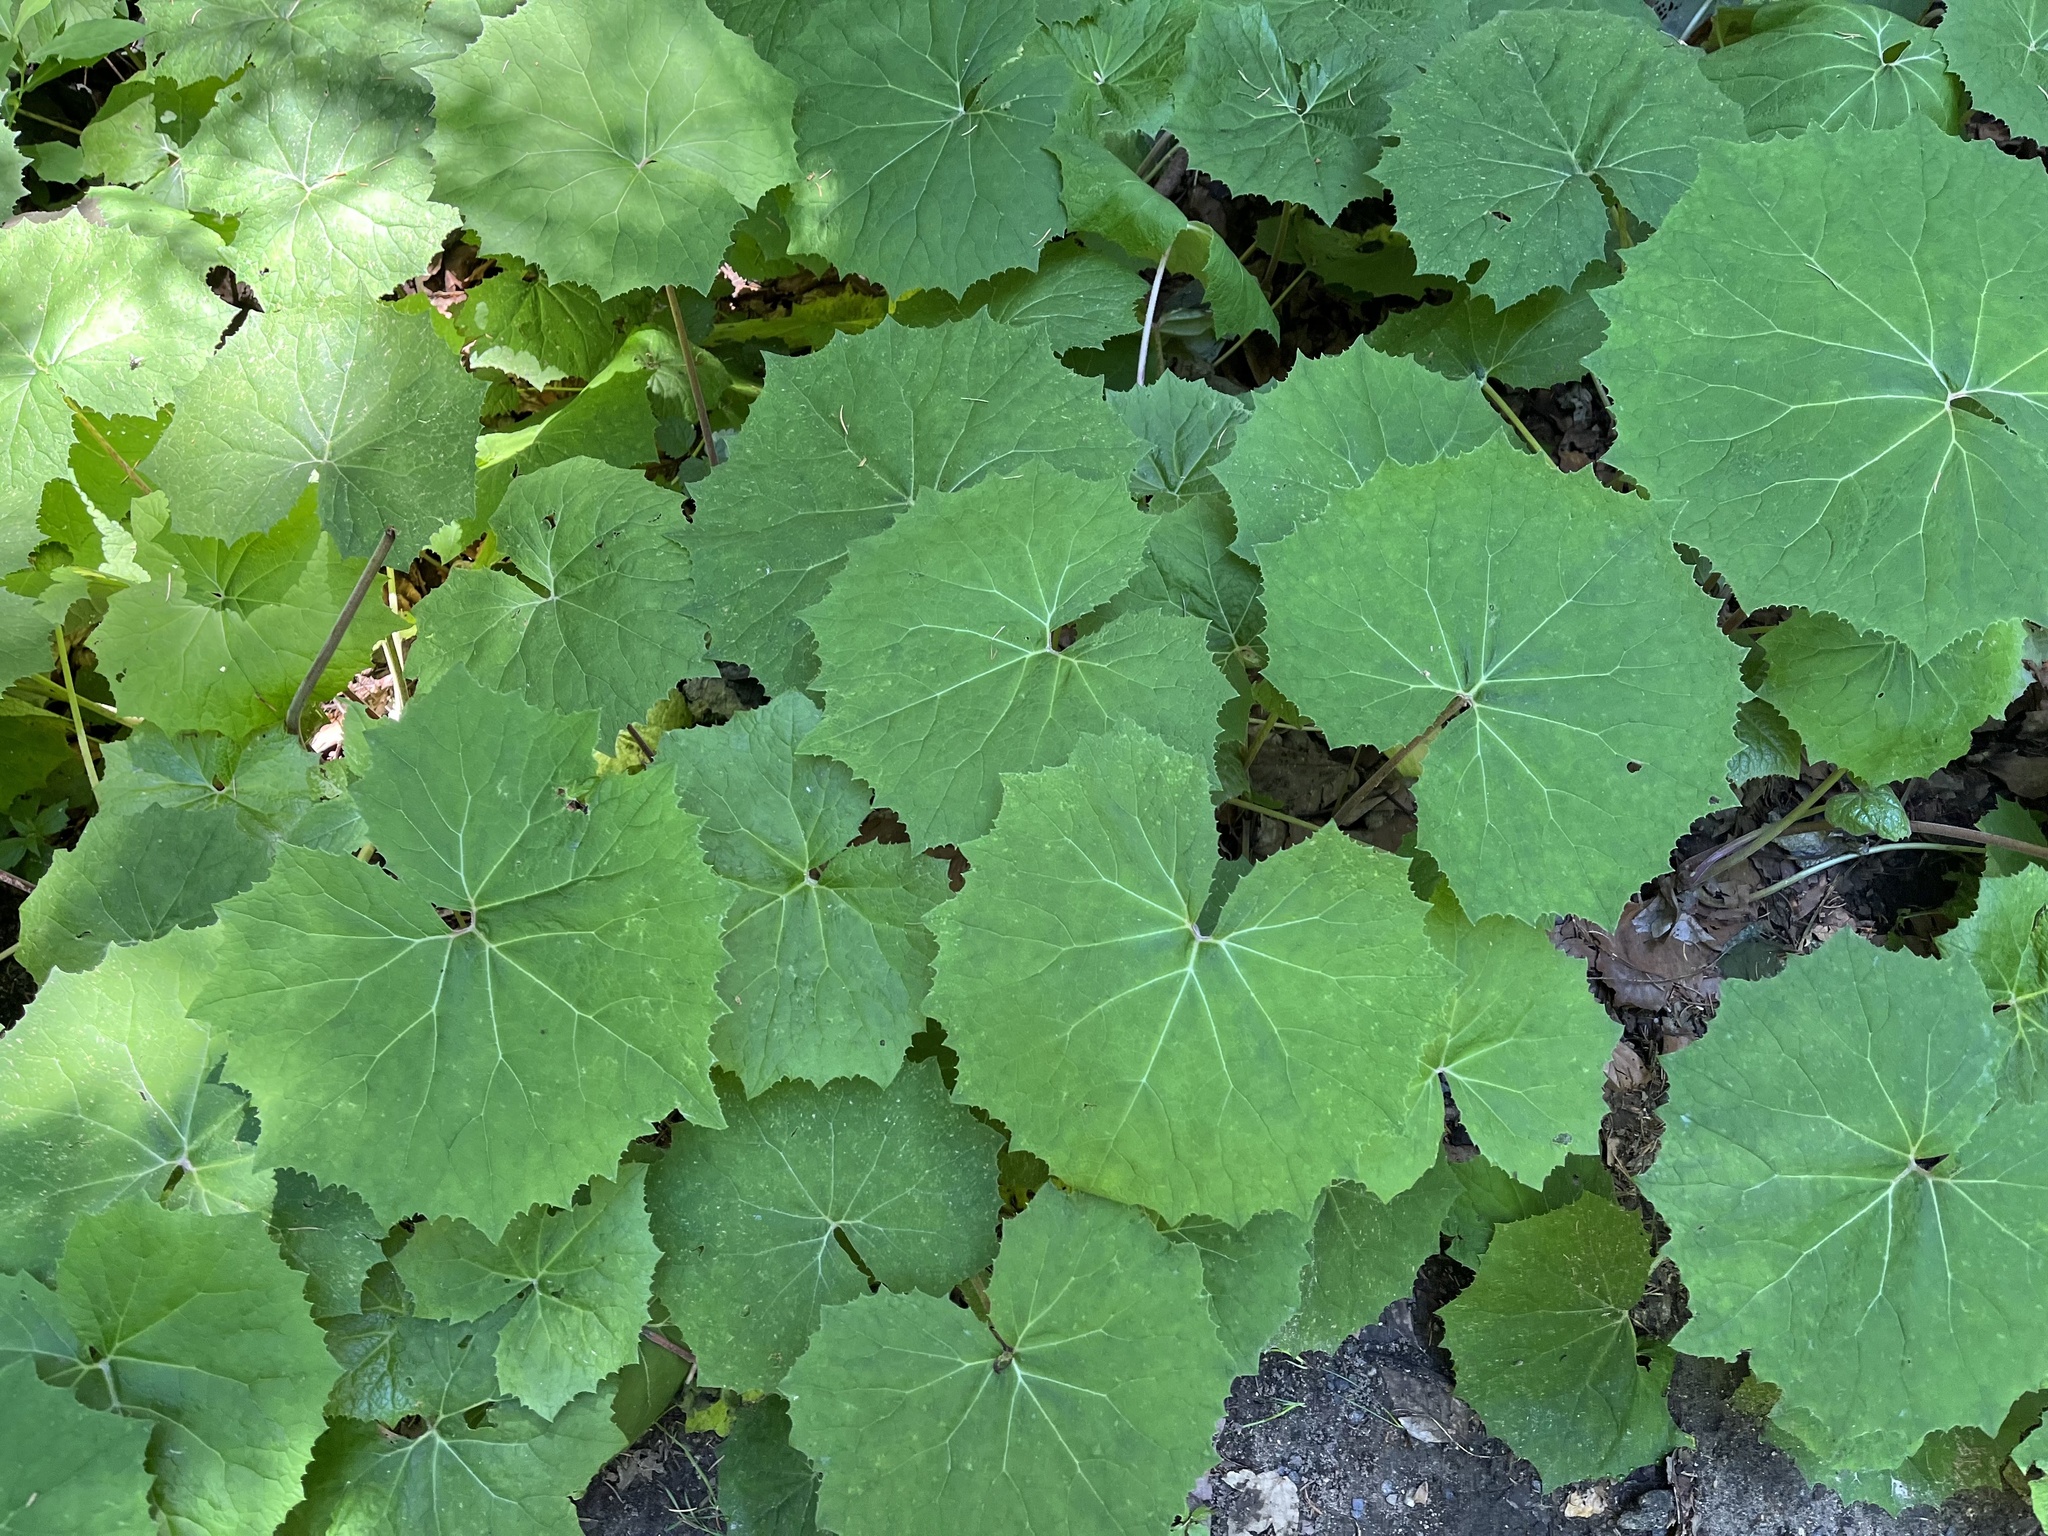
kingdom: Plantae
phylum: Tracheophyta
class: Magnoliopsida
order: Asterales
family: Asteraceae
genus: Petasites
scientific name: Petasites albus
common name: White butterbur
